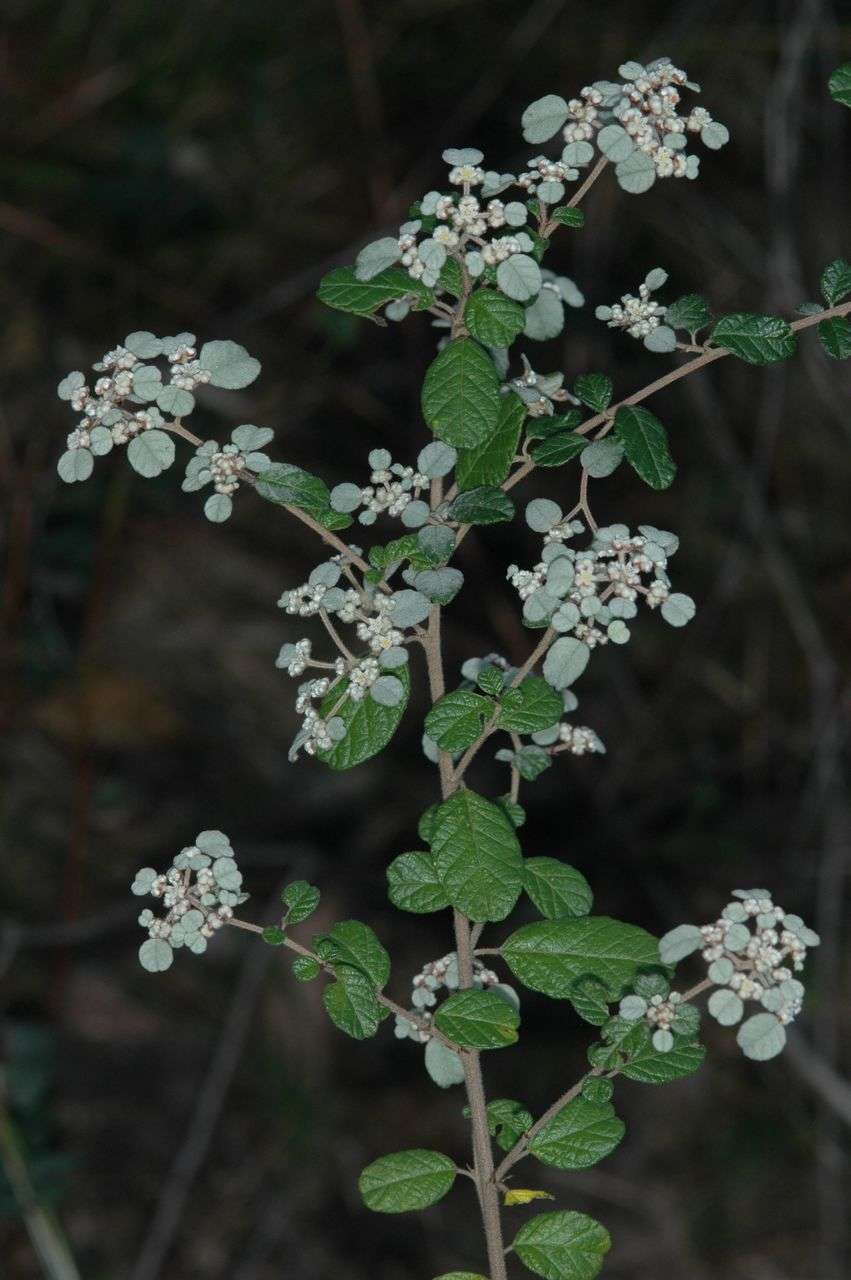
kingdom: Plantae
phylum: Tracheophyta
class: Magnoliopsida
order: Rosales
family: Rhamnaceae
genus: Spyridium
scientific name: Spyridium parvifolium
